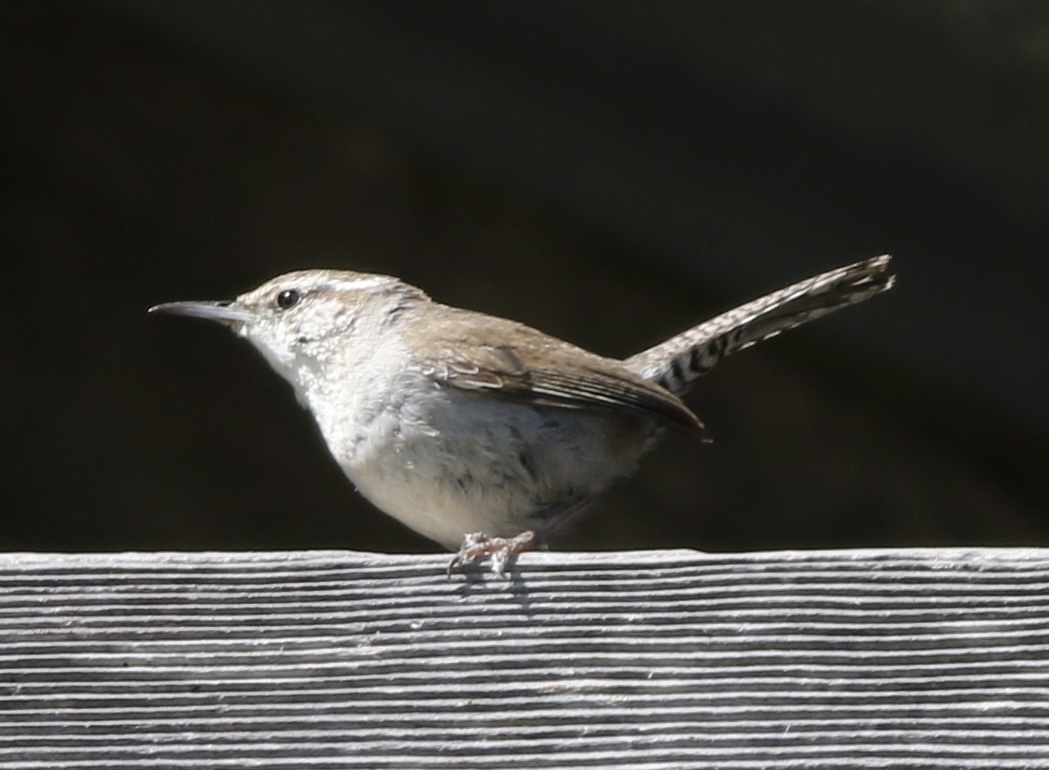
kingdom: Animalia
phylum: Chordata
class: Aves
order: Passeriformes
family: Troglodytidae
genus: Thryomanes
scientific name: Thryomanes bewickii
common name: Bewick's wren
